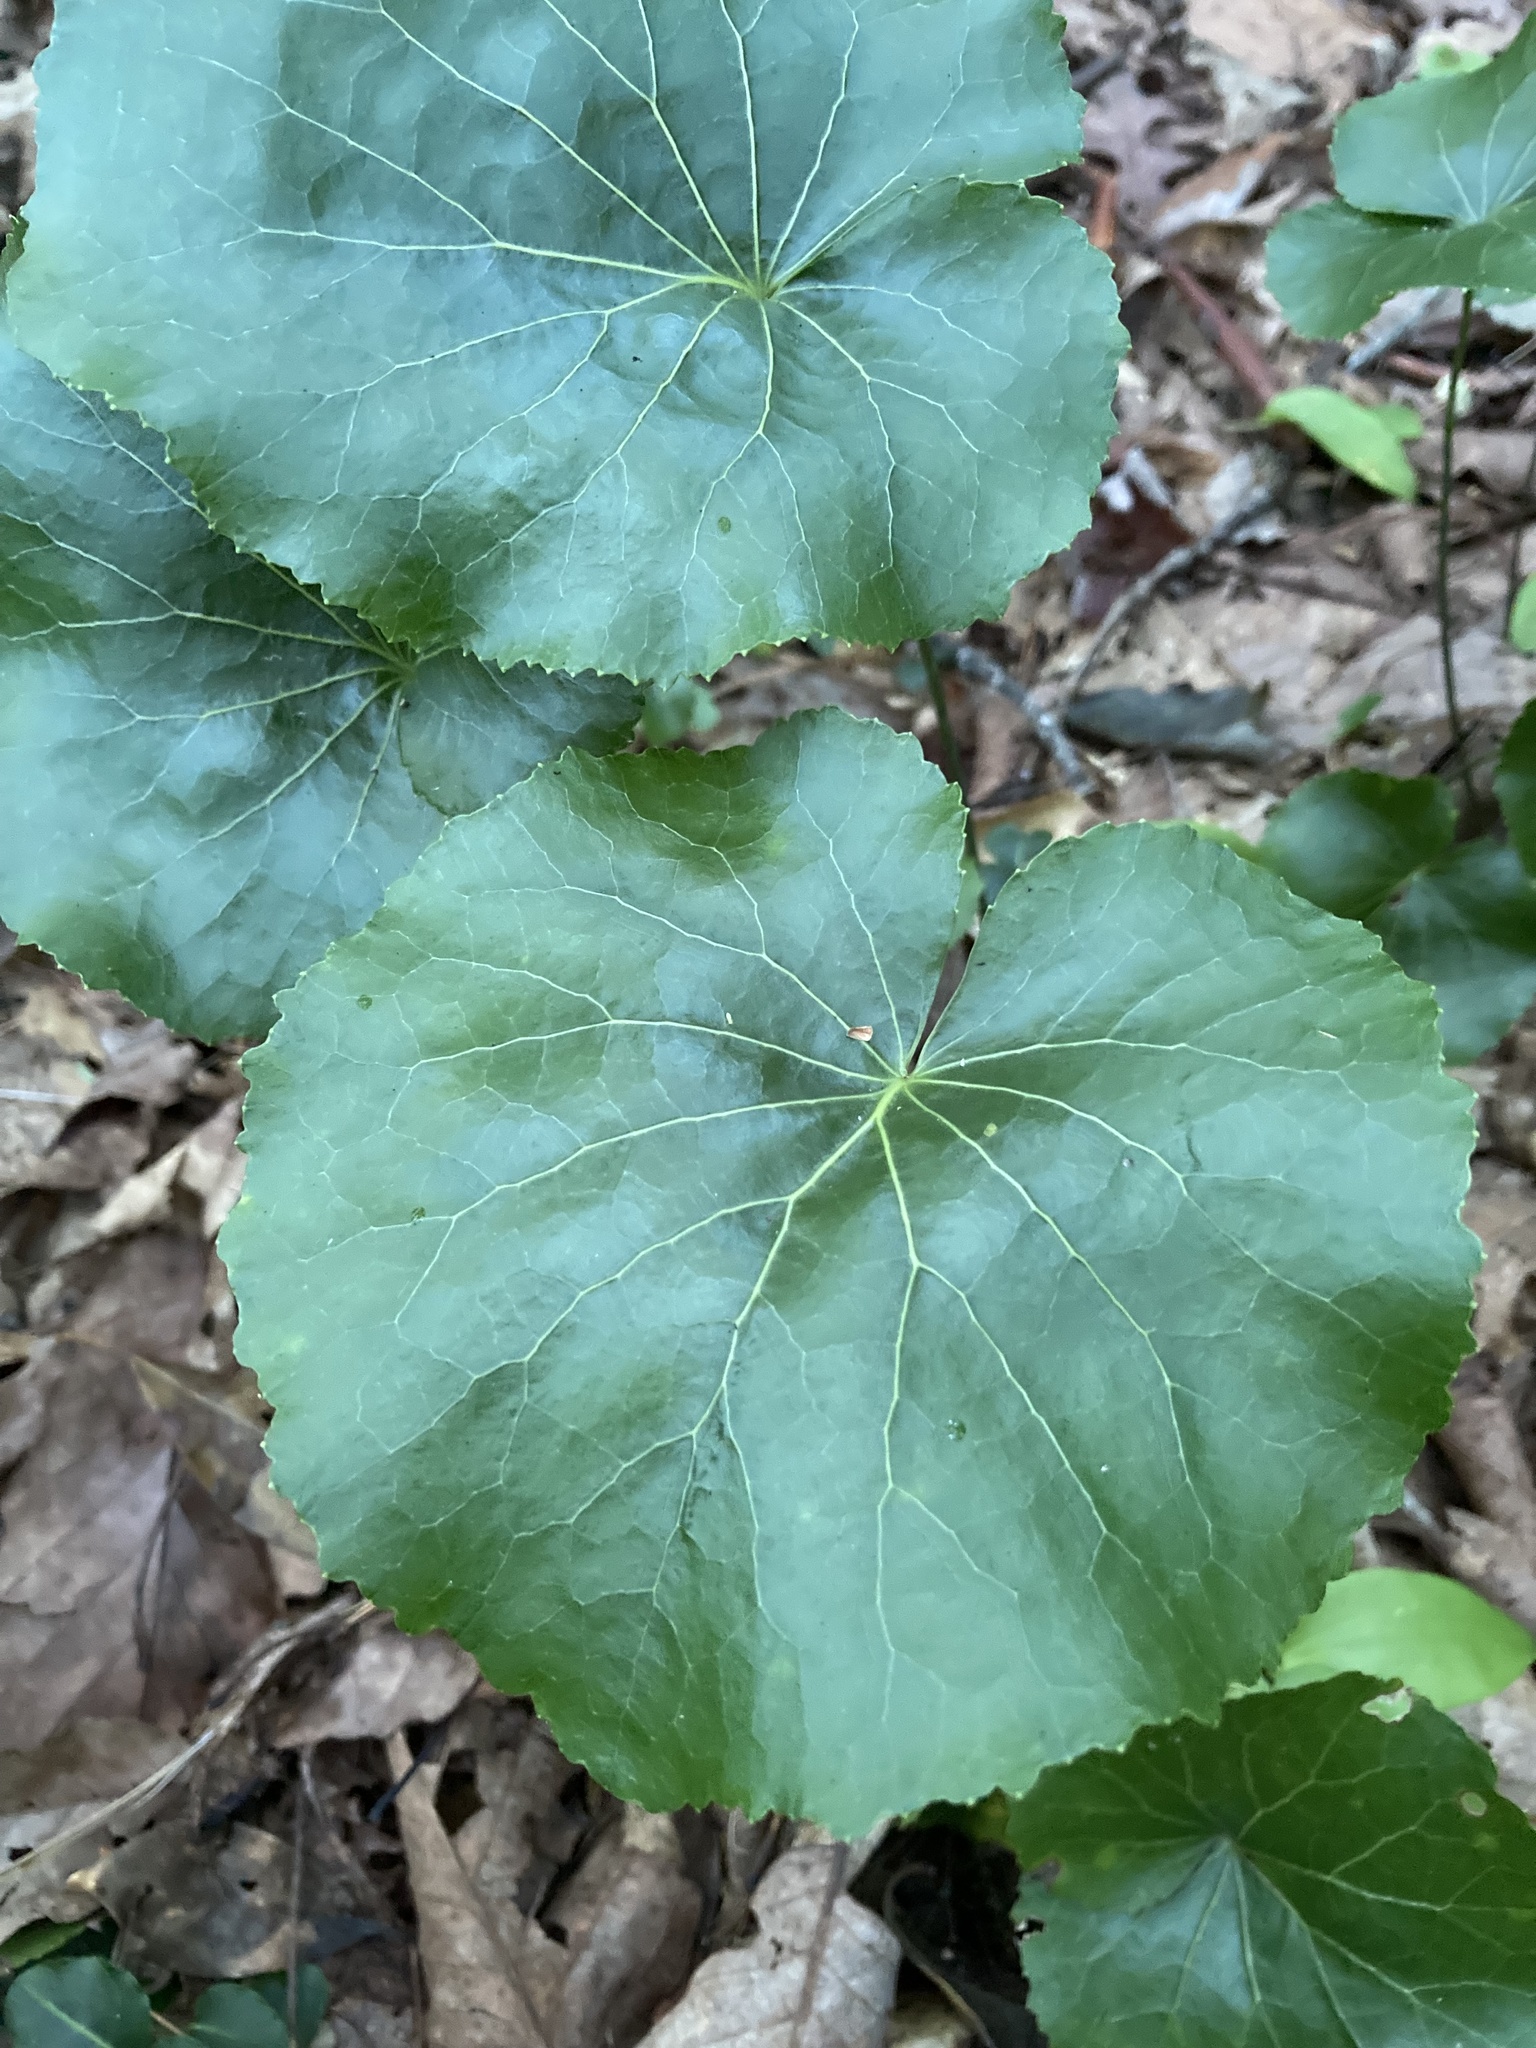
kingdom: Plantae
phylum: Tracheophyta
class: Magnoliopsida
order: Ericales
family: Diapensiaceae
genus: Galax
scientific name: Galax urceolata
